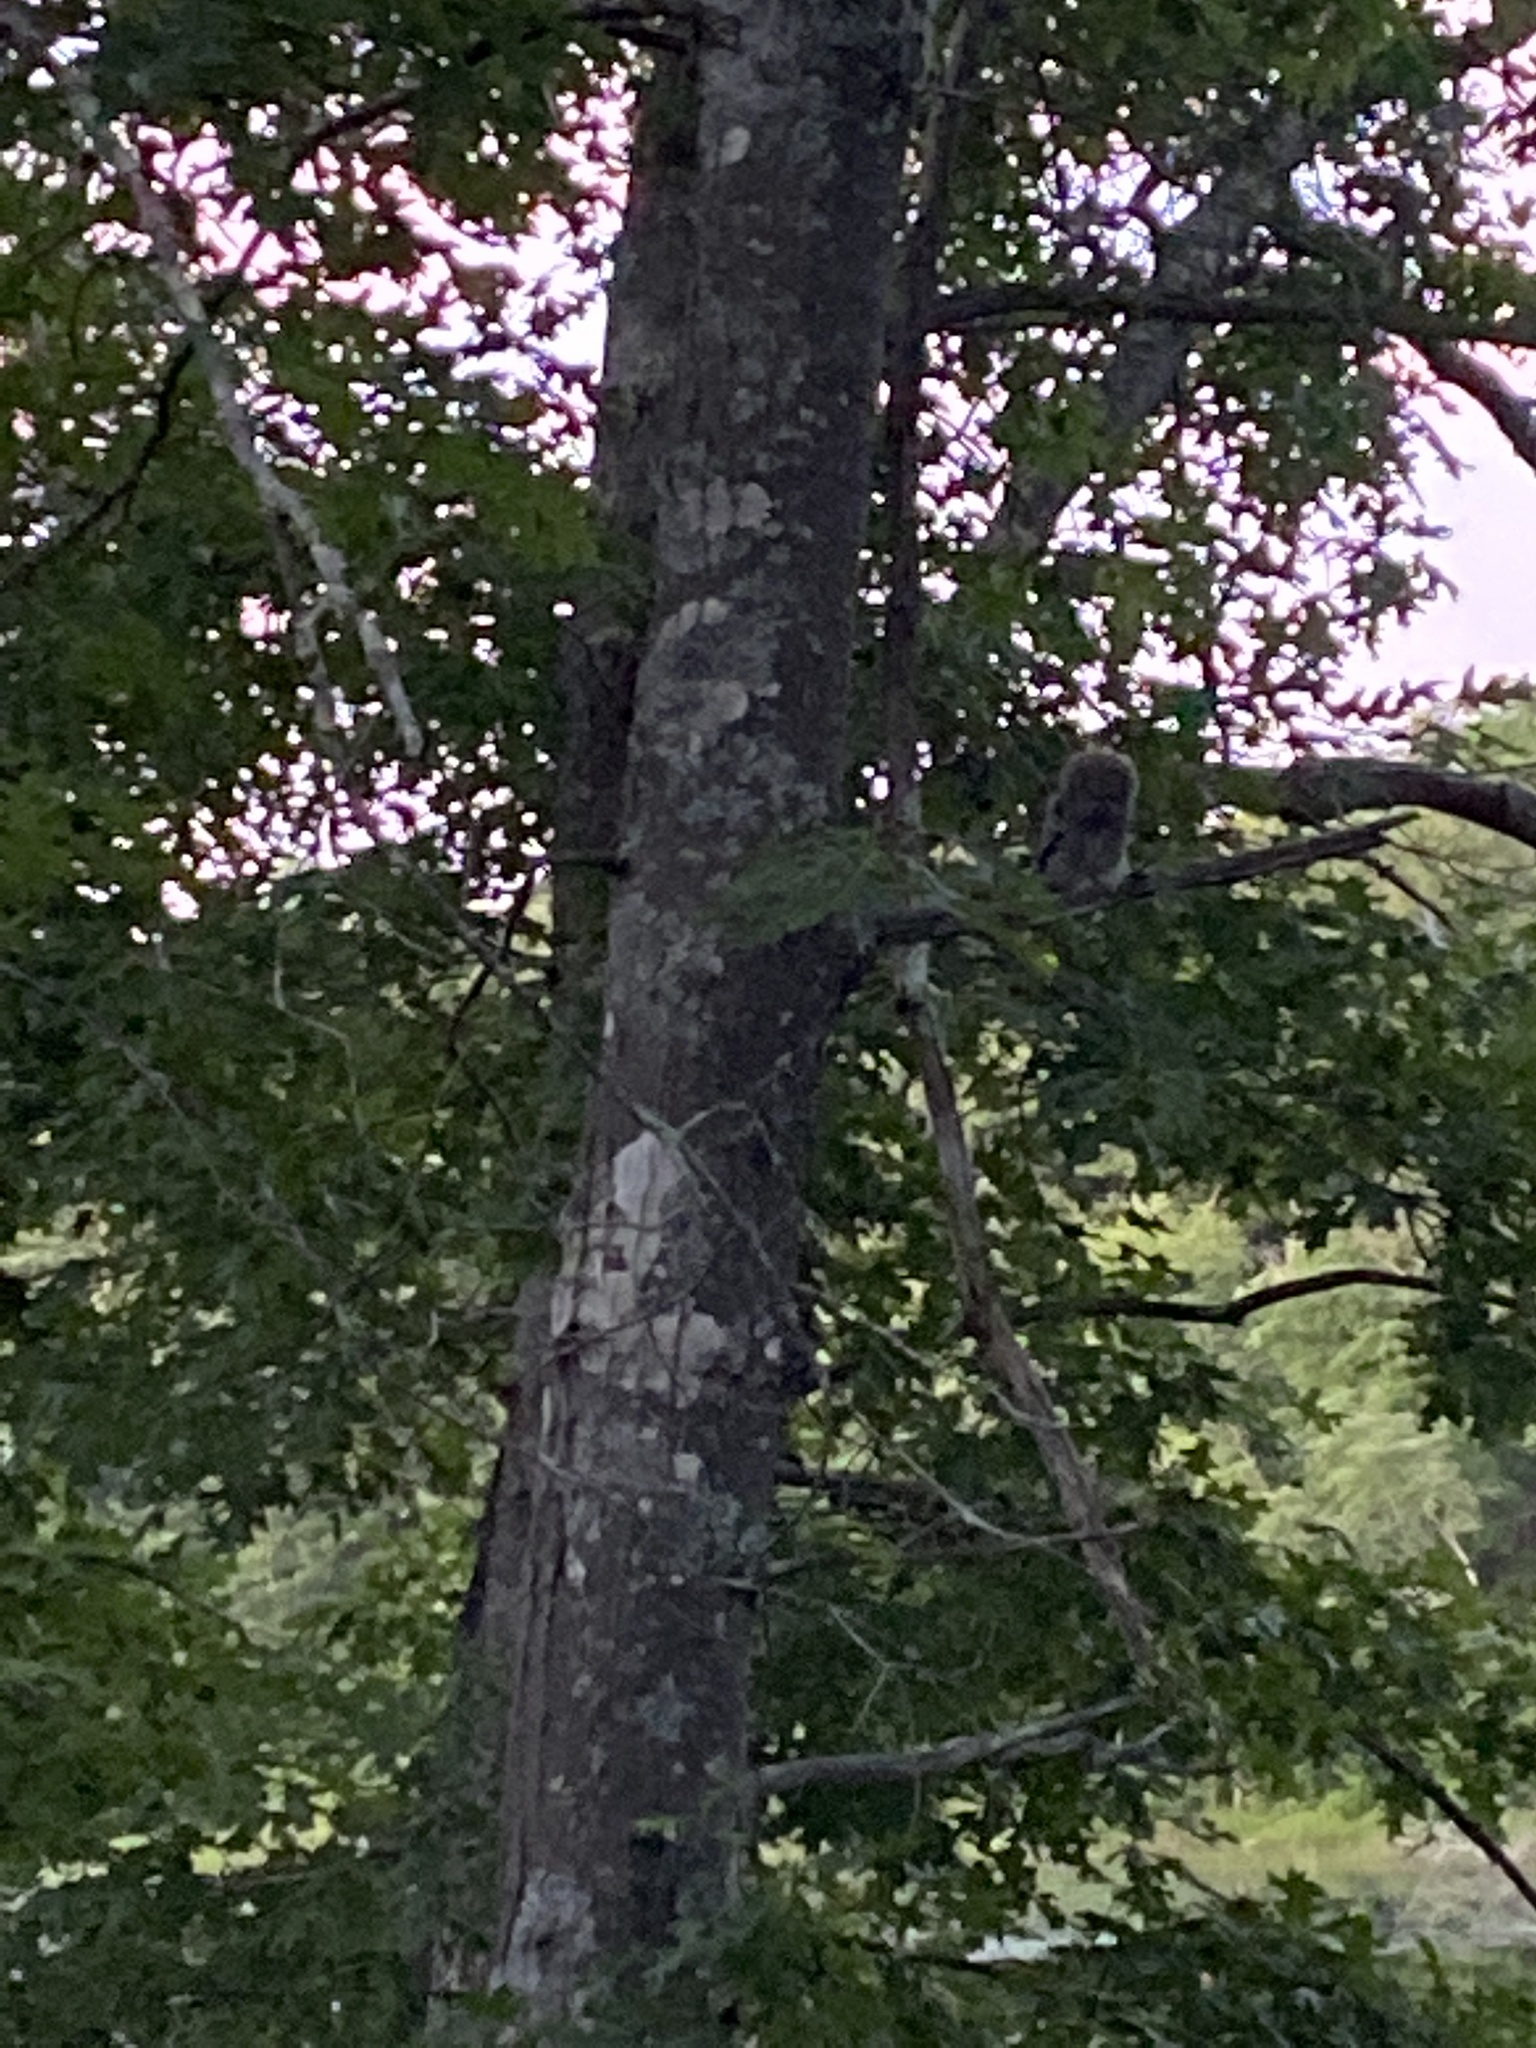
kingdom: Animalia
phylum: Chordata
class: Aves
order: Strigiformes
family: Strigidae
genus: Megascops
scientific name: Megascops asio
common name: Eastern screech-owl
